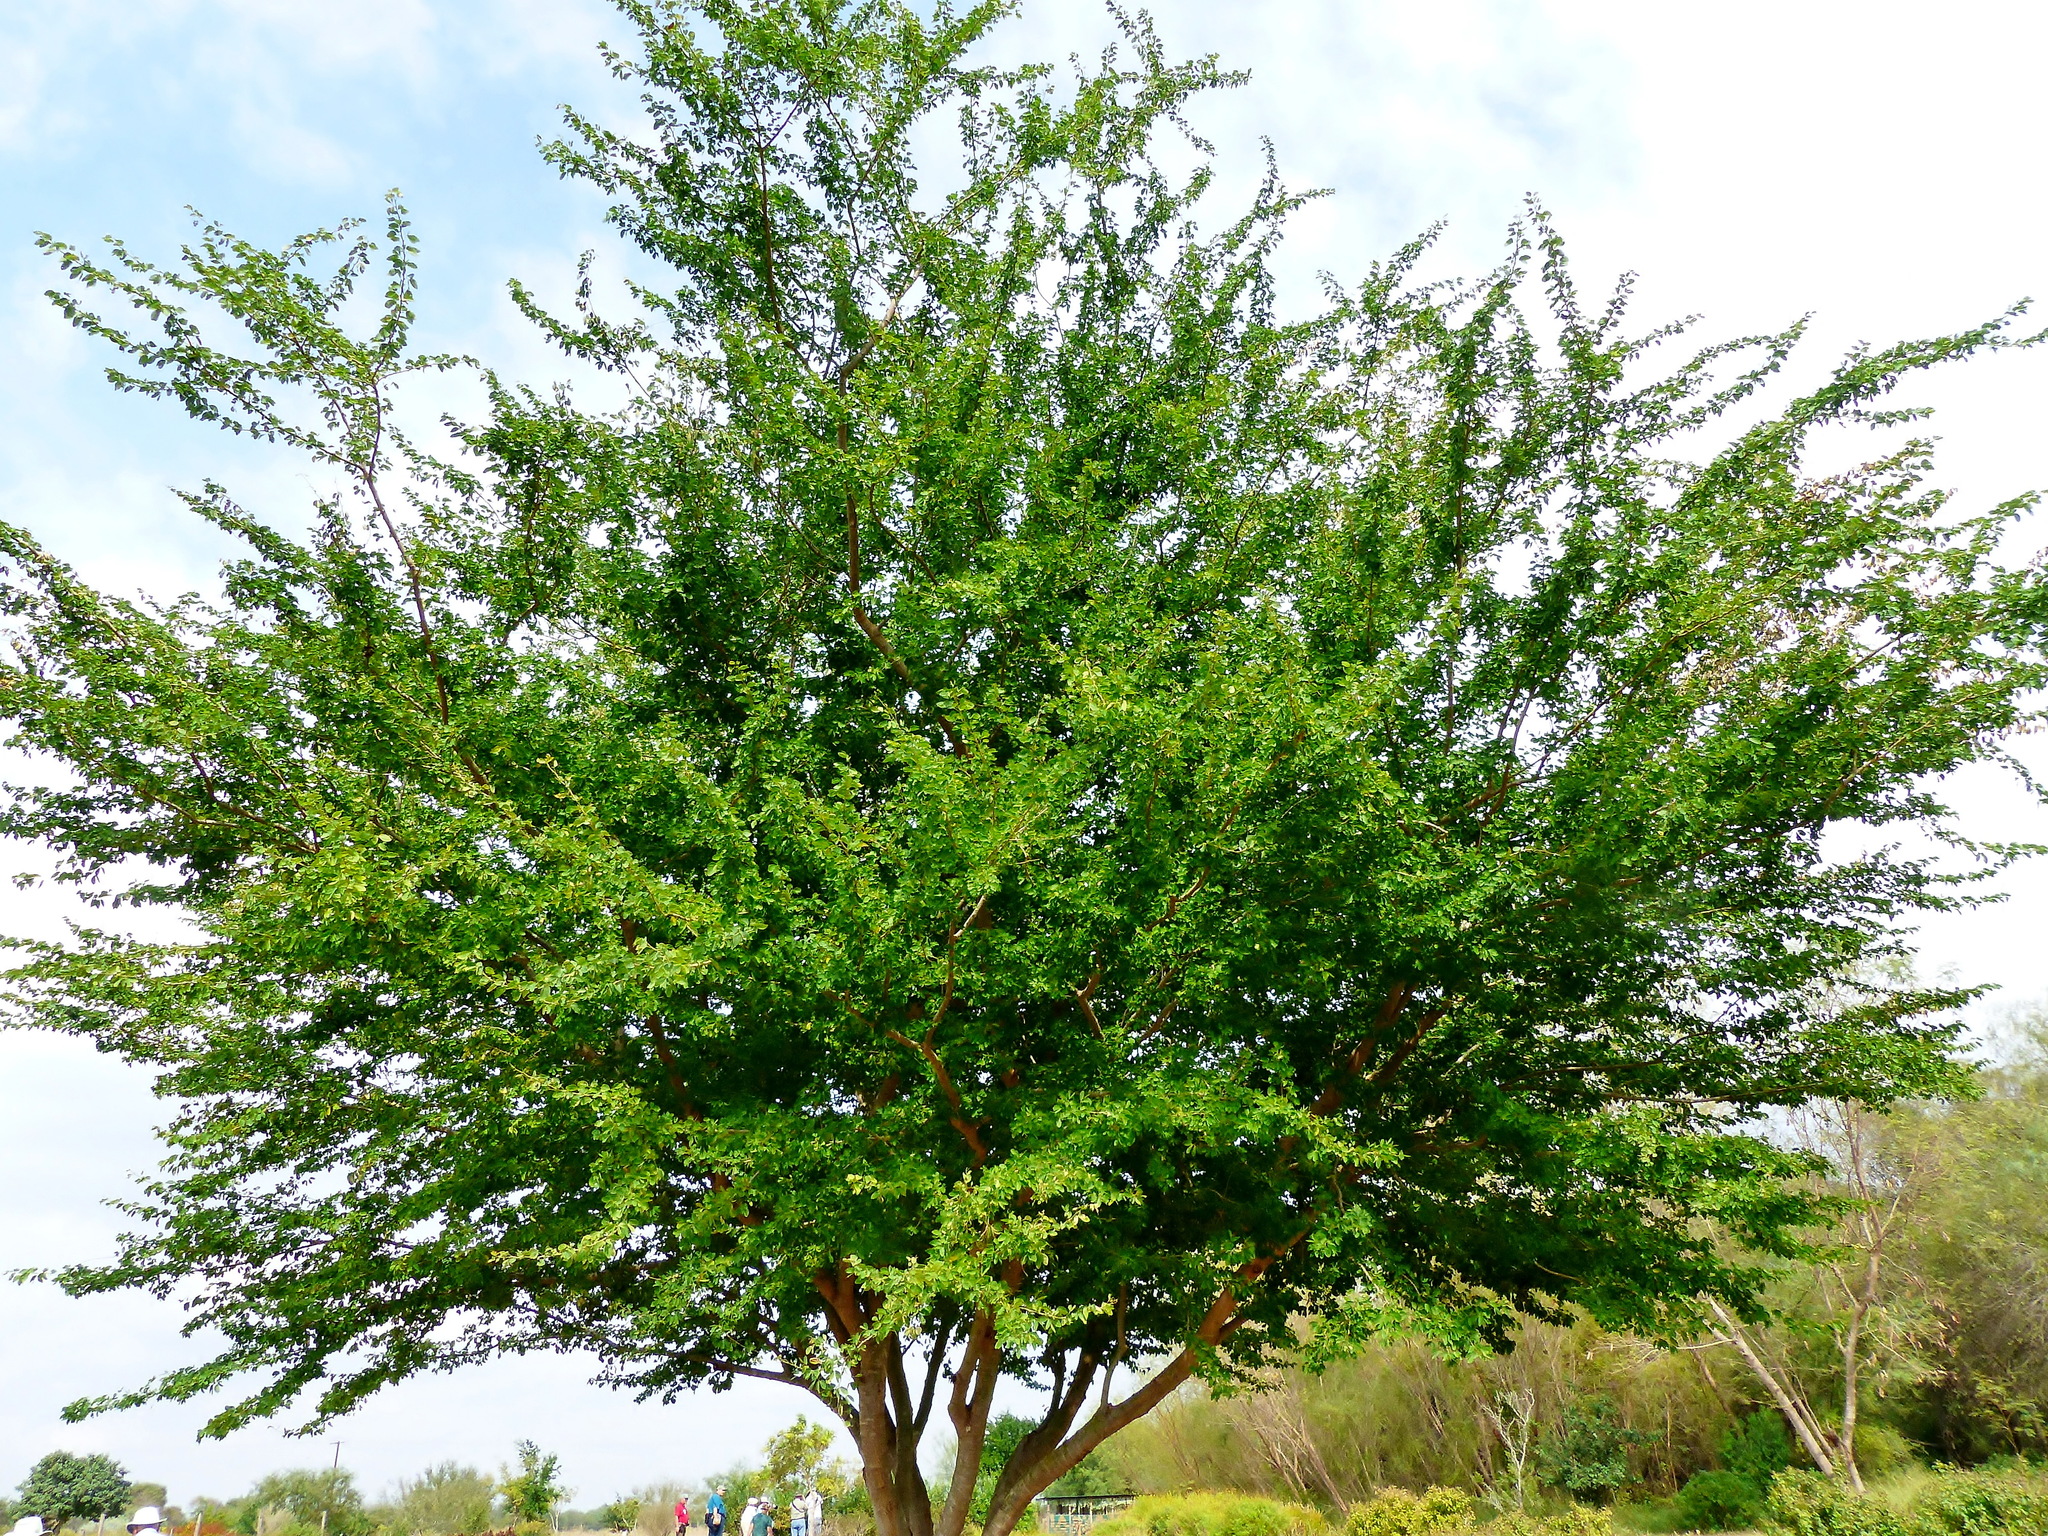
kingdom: Plantae
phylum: Tracheophyta
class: Magnoliopsida
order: Fabales
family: Fabaceae
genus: Pithecellobium
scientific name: Pithecellobium dulce
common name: Monkeypod
